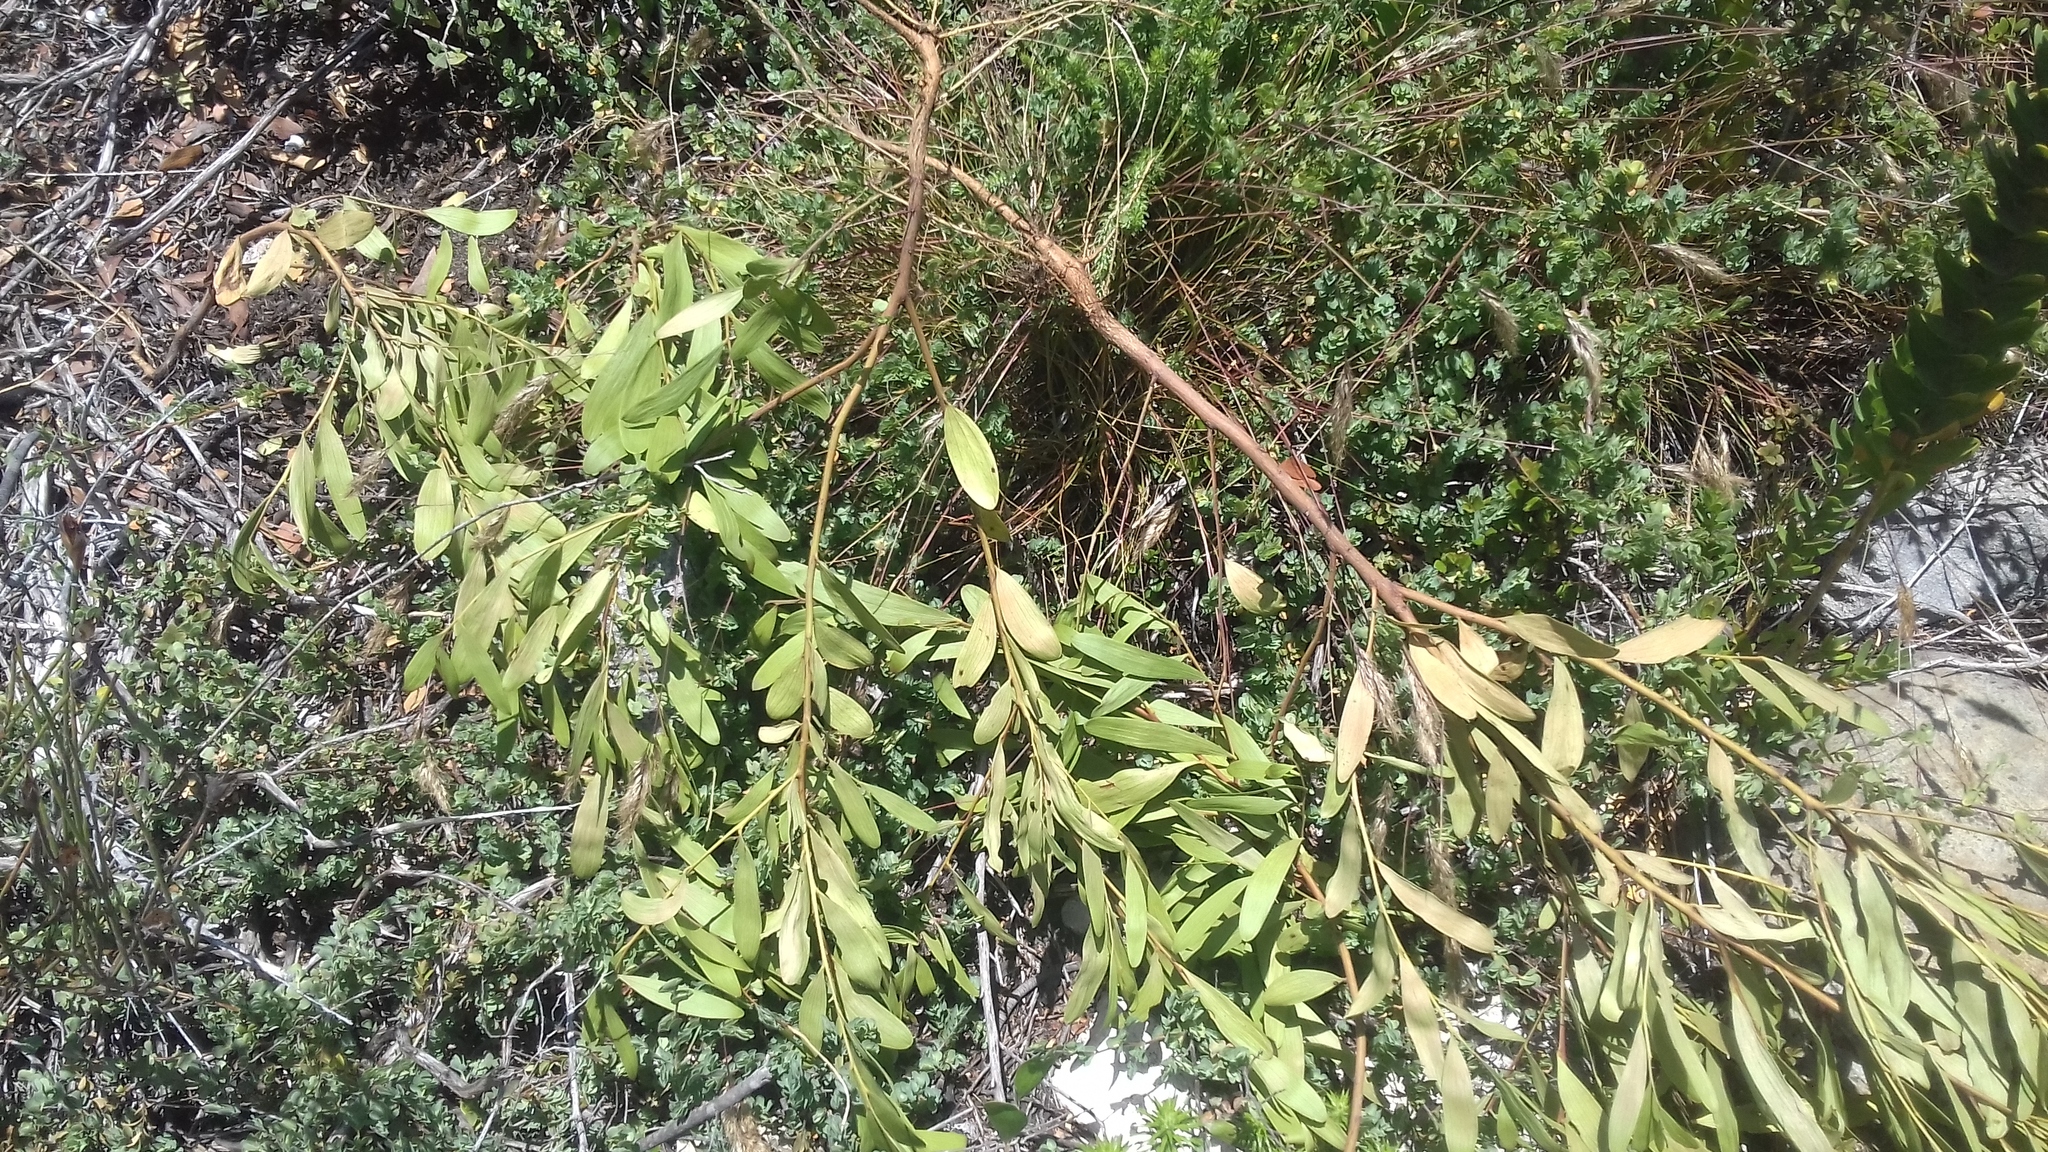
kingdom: Plantae
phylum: Tracheophyta
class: Magnoliopsida
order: Fabales
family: Fabaceae
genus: Acacia
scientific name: Acacia cyclops
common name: Coastal wattle
